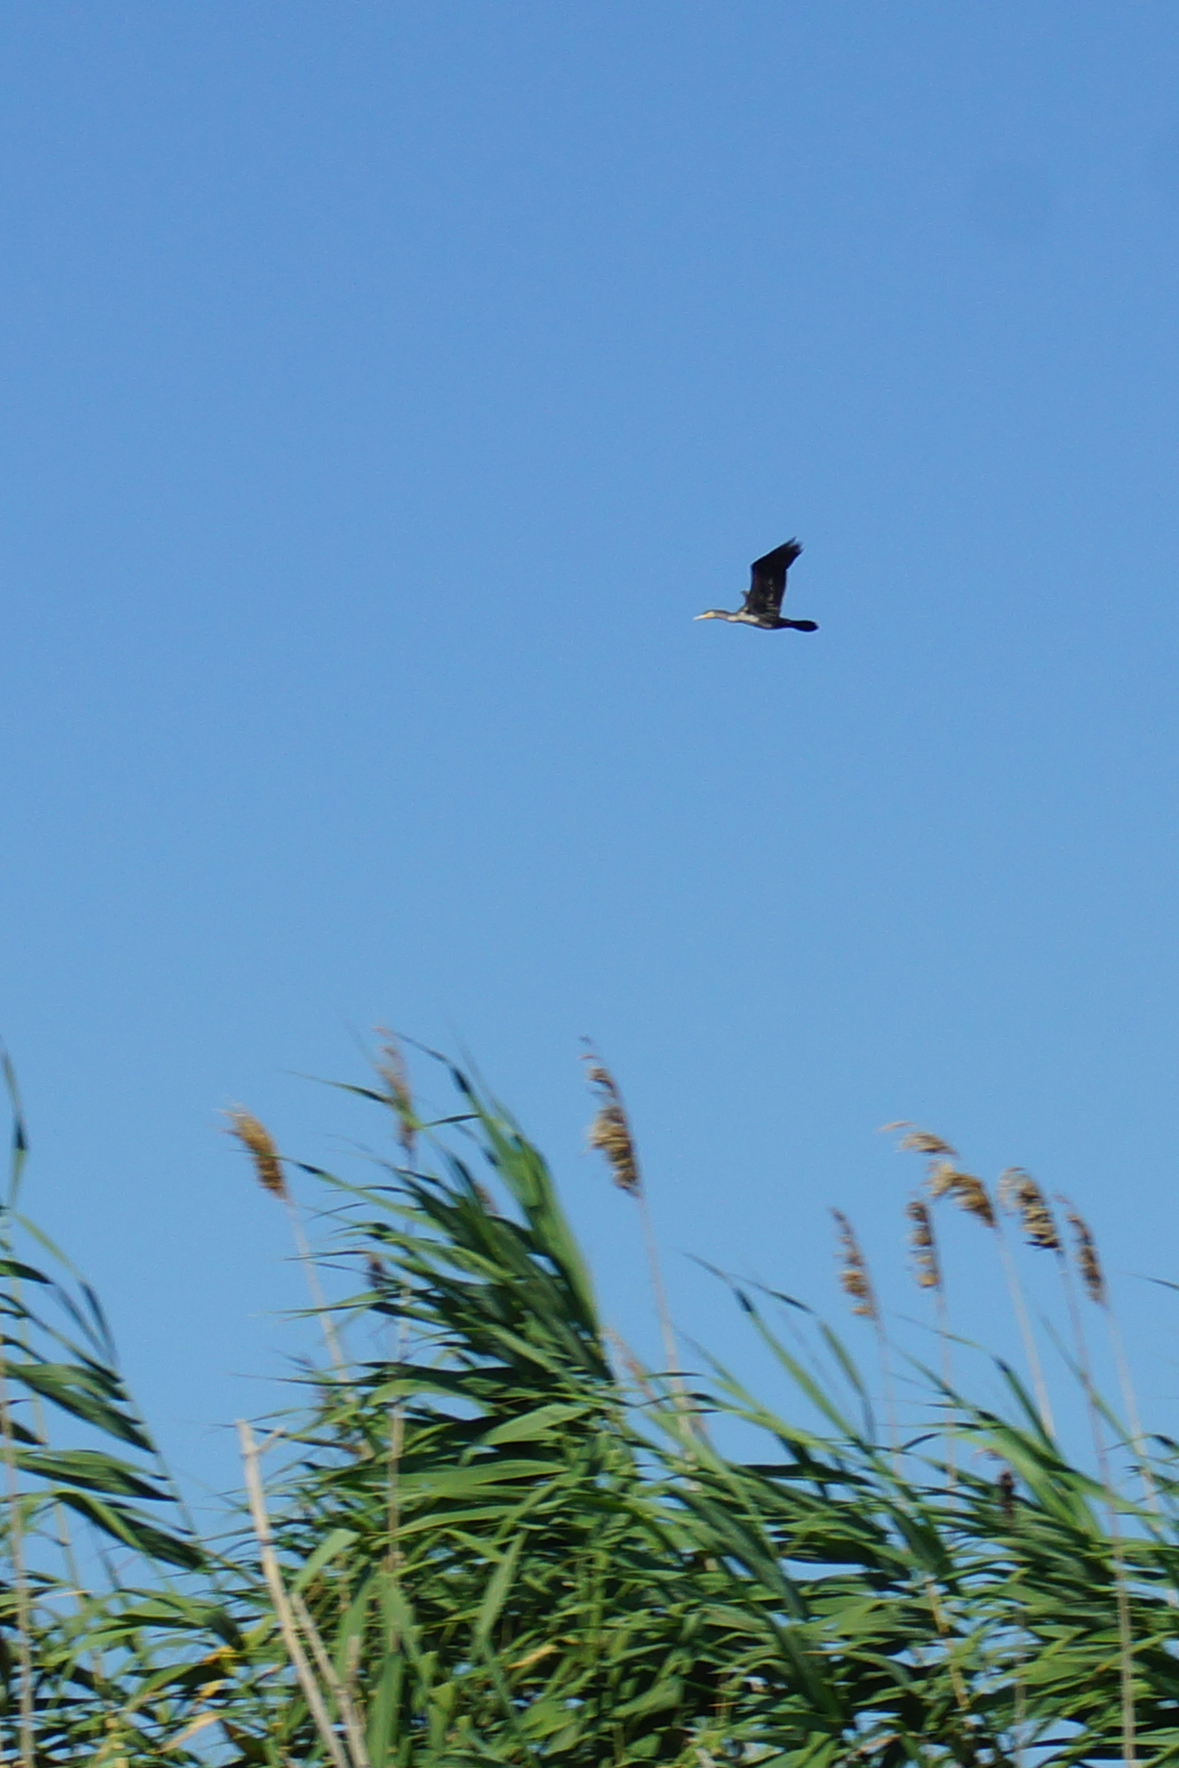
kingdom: Animalia
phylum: Chordata
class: Aves
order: Suliformes
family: Phalacrocoracidae
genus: Phalacrocorax
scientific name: Phalacrocorax carbo
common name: Great cormorant
